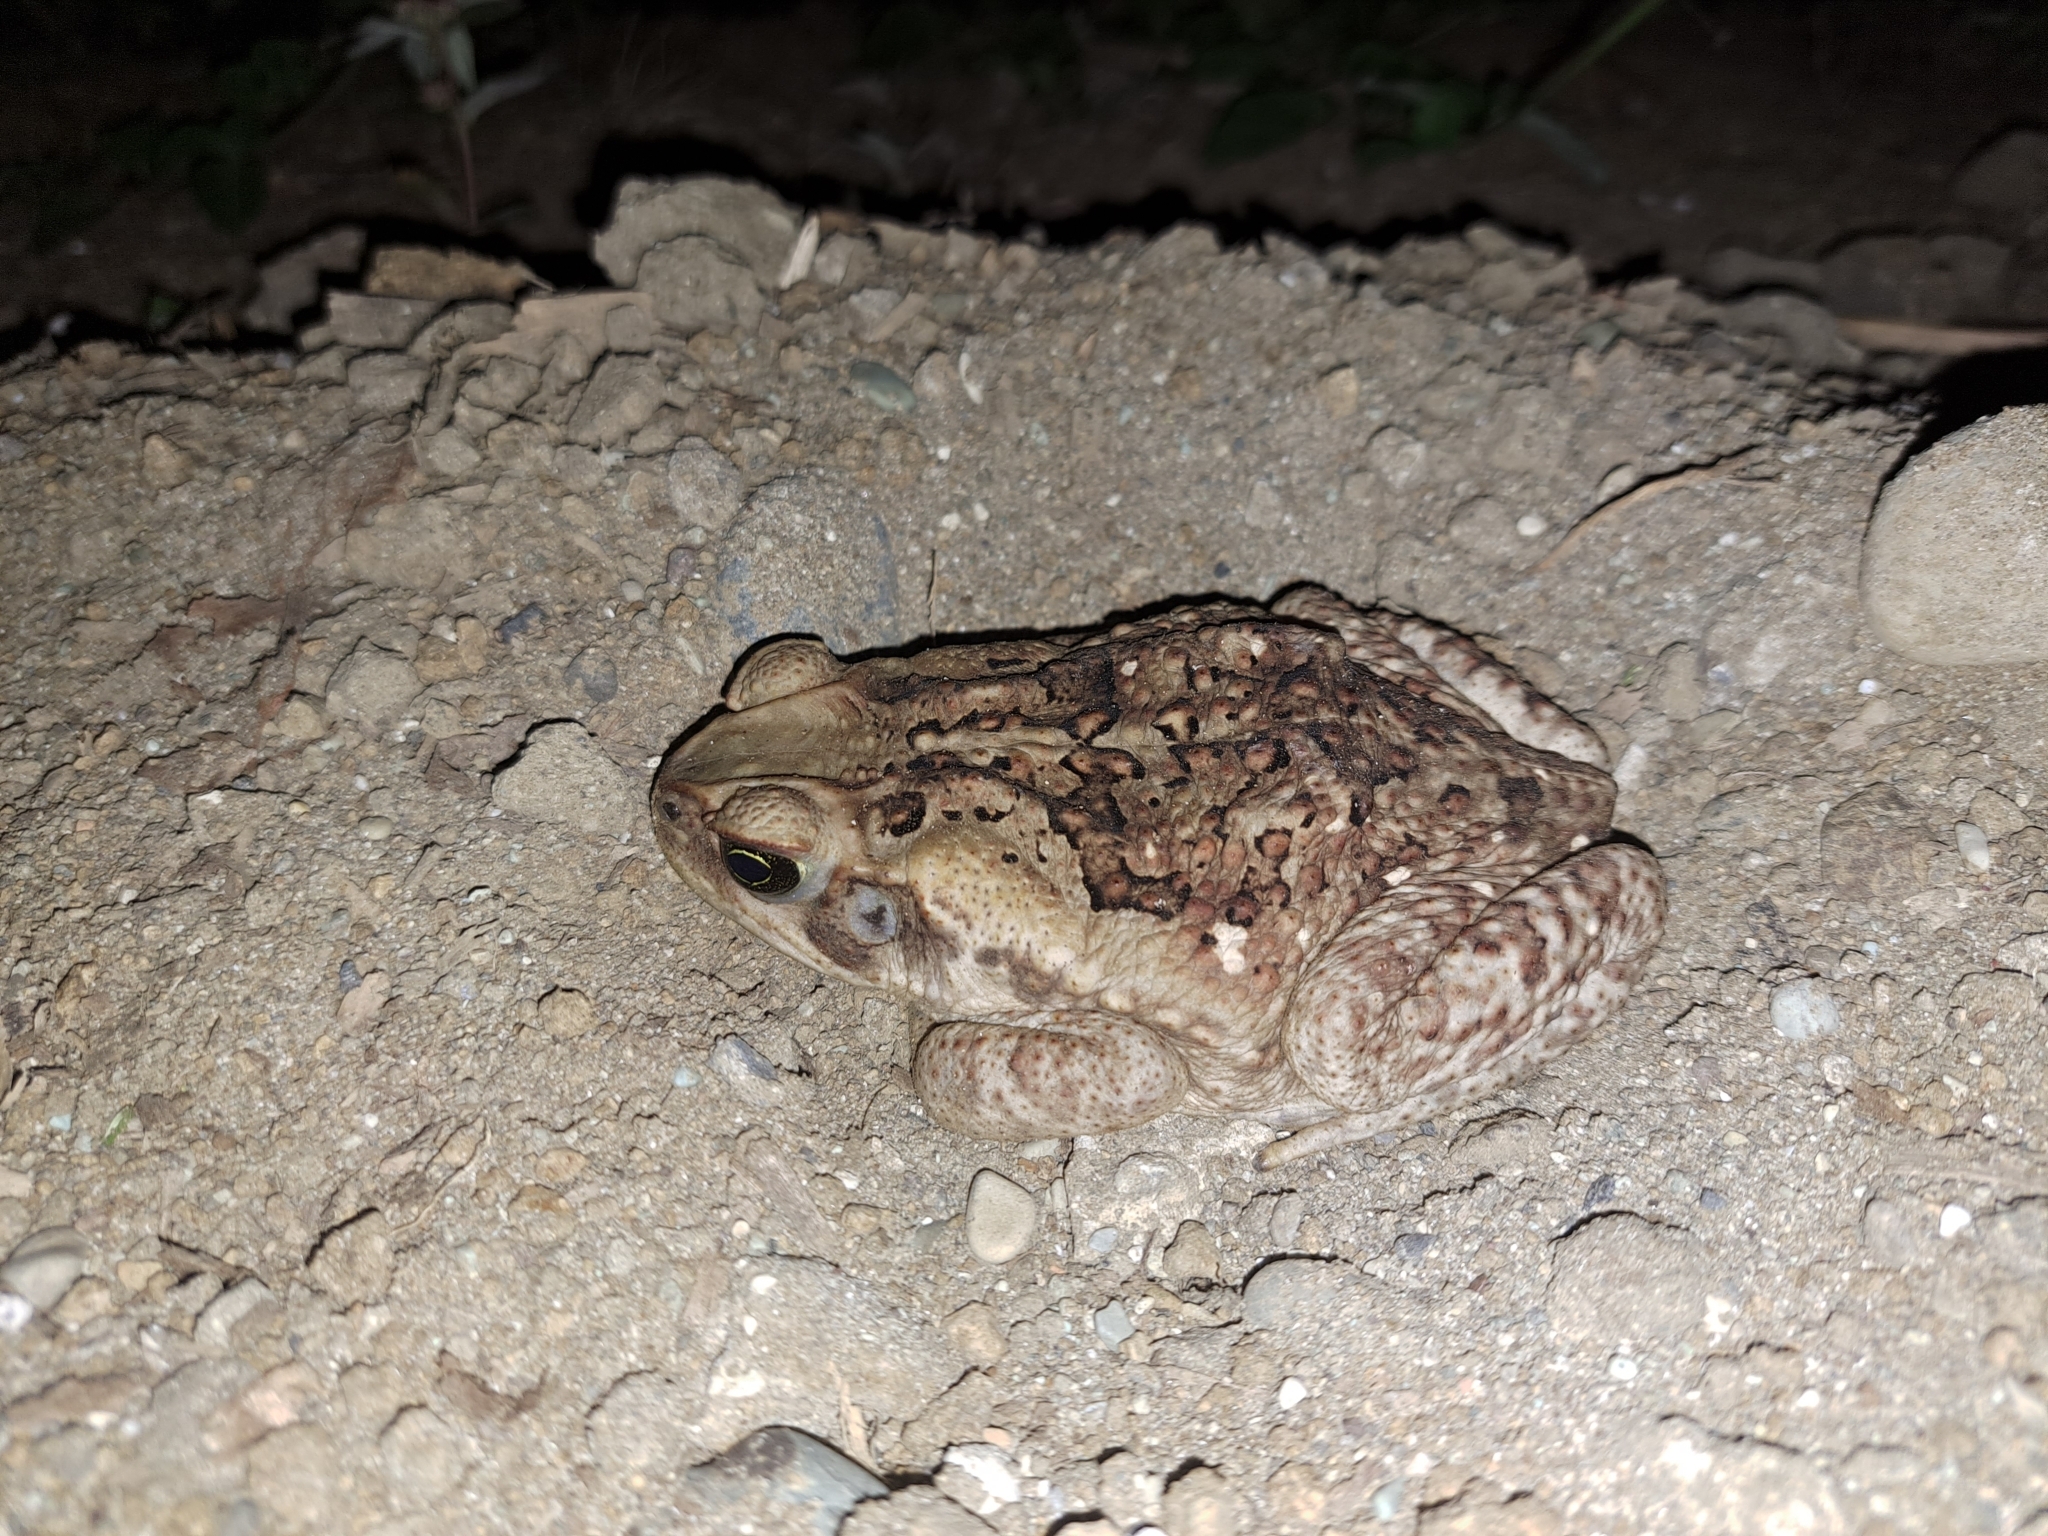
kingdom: Animalia
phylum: Chordata
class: Amphibia
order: Anura
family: Bufonidae
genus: Rhinella
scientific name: Rhinella
